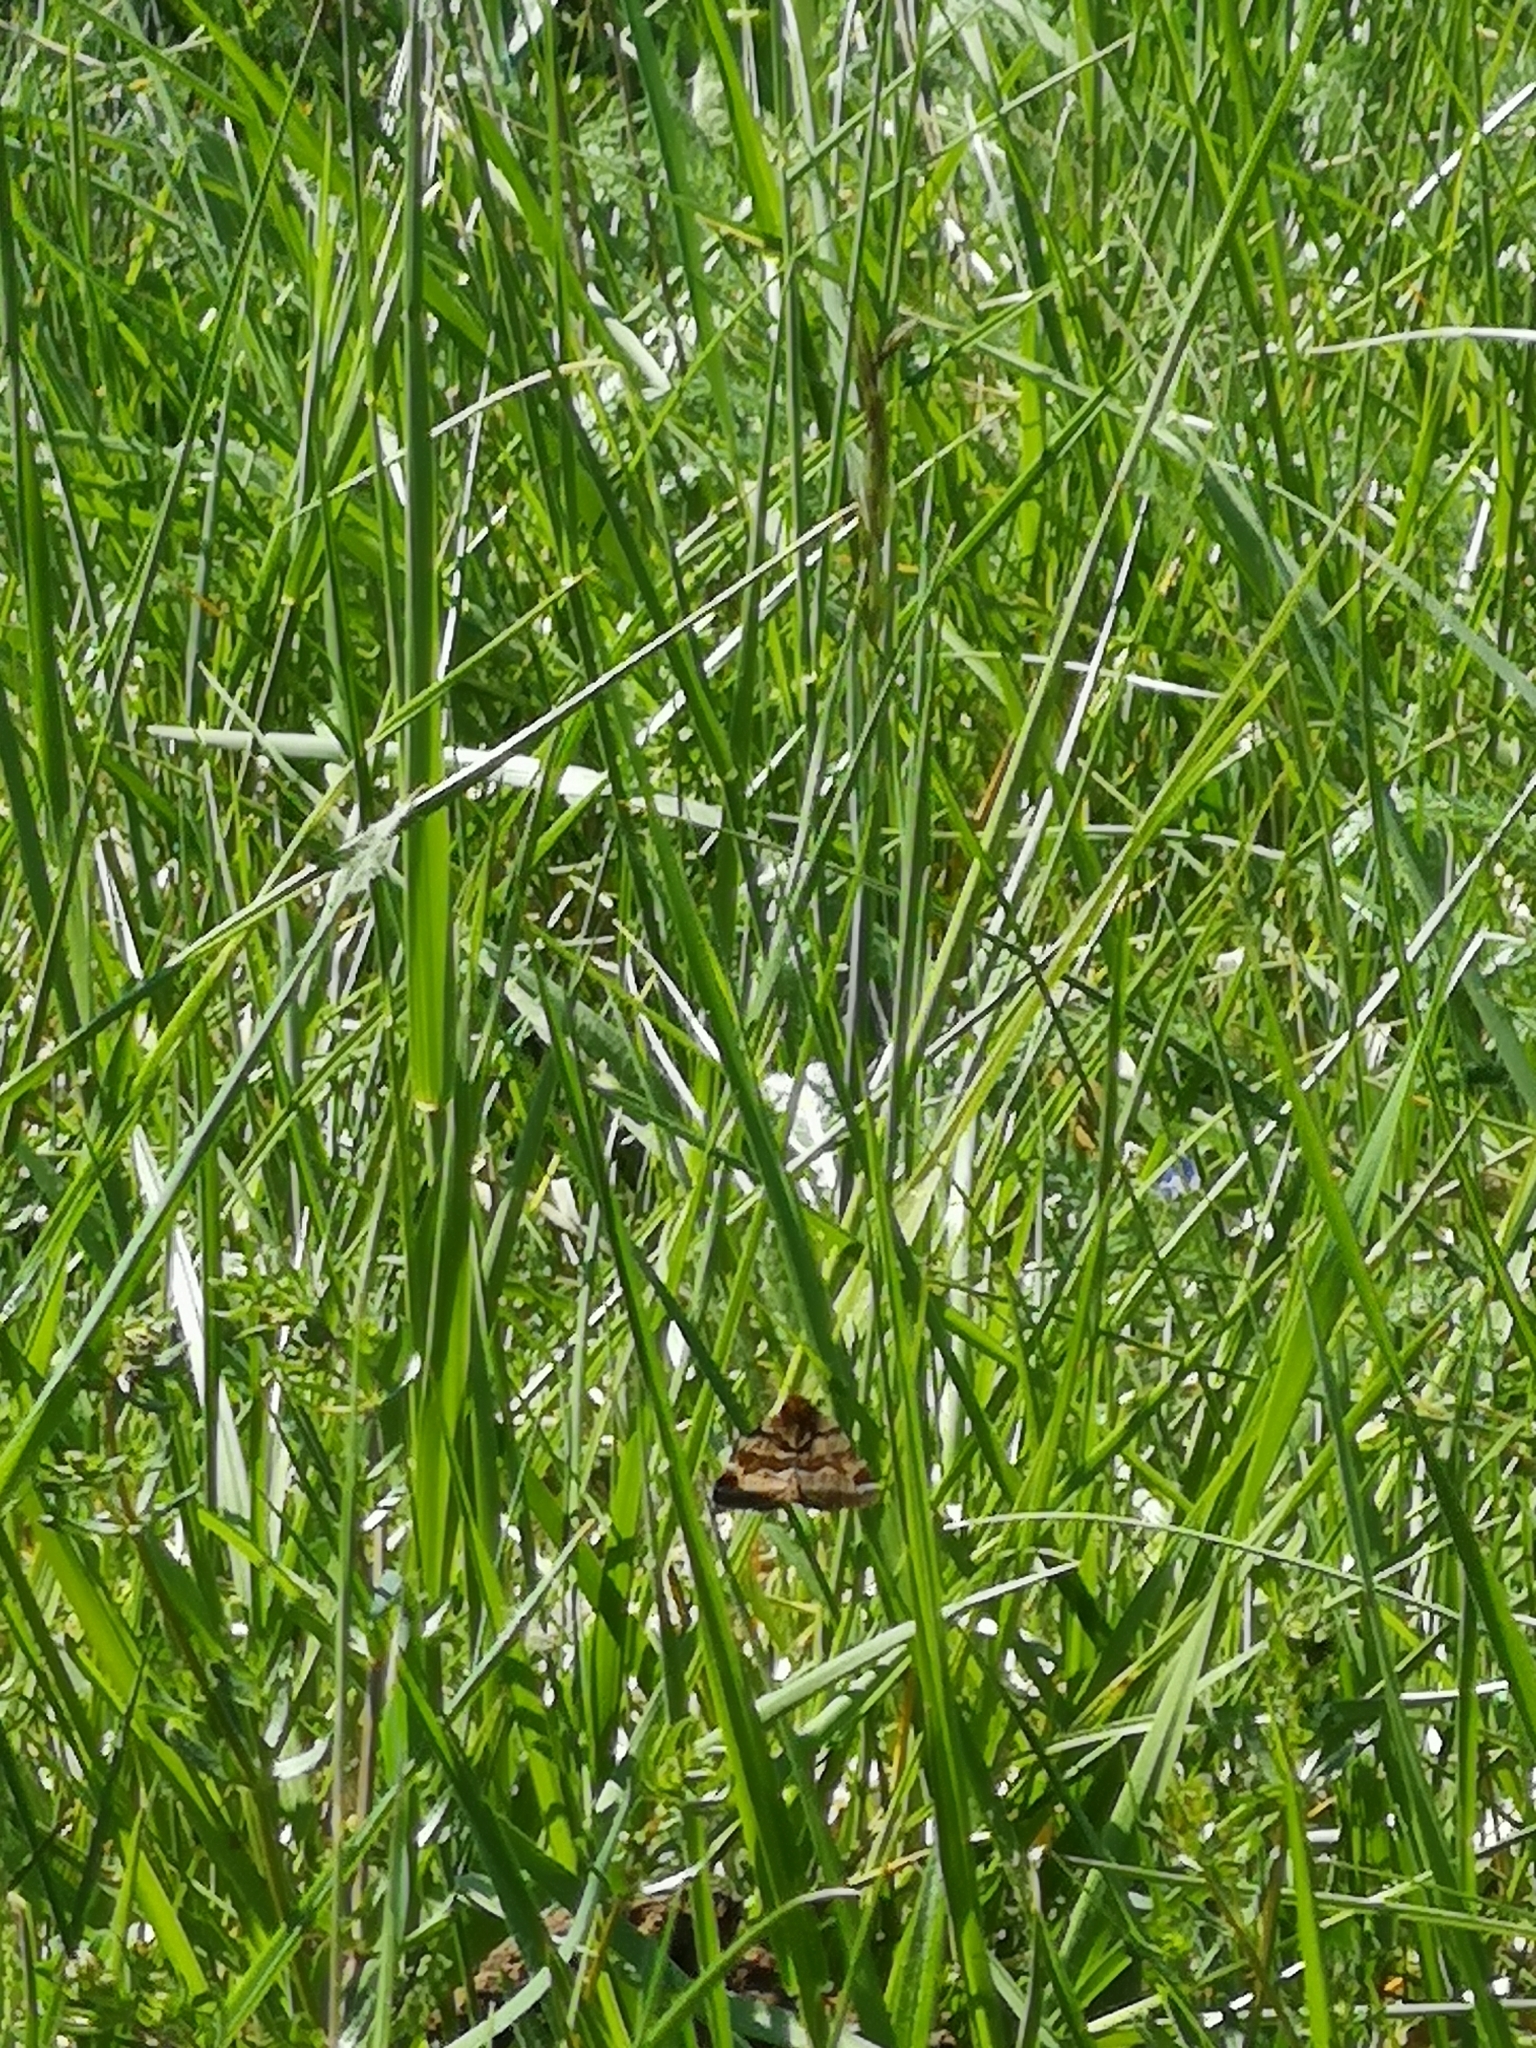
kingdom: Animalia
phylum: Arthropoda
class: Insecta
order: Lepidoptera
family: Erebidae
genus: Euclidia
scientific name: Euclidia glyphica
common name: Burnet companion
